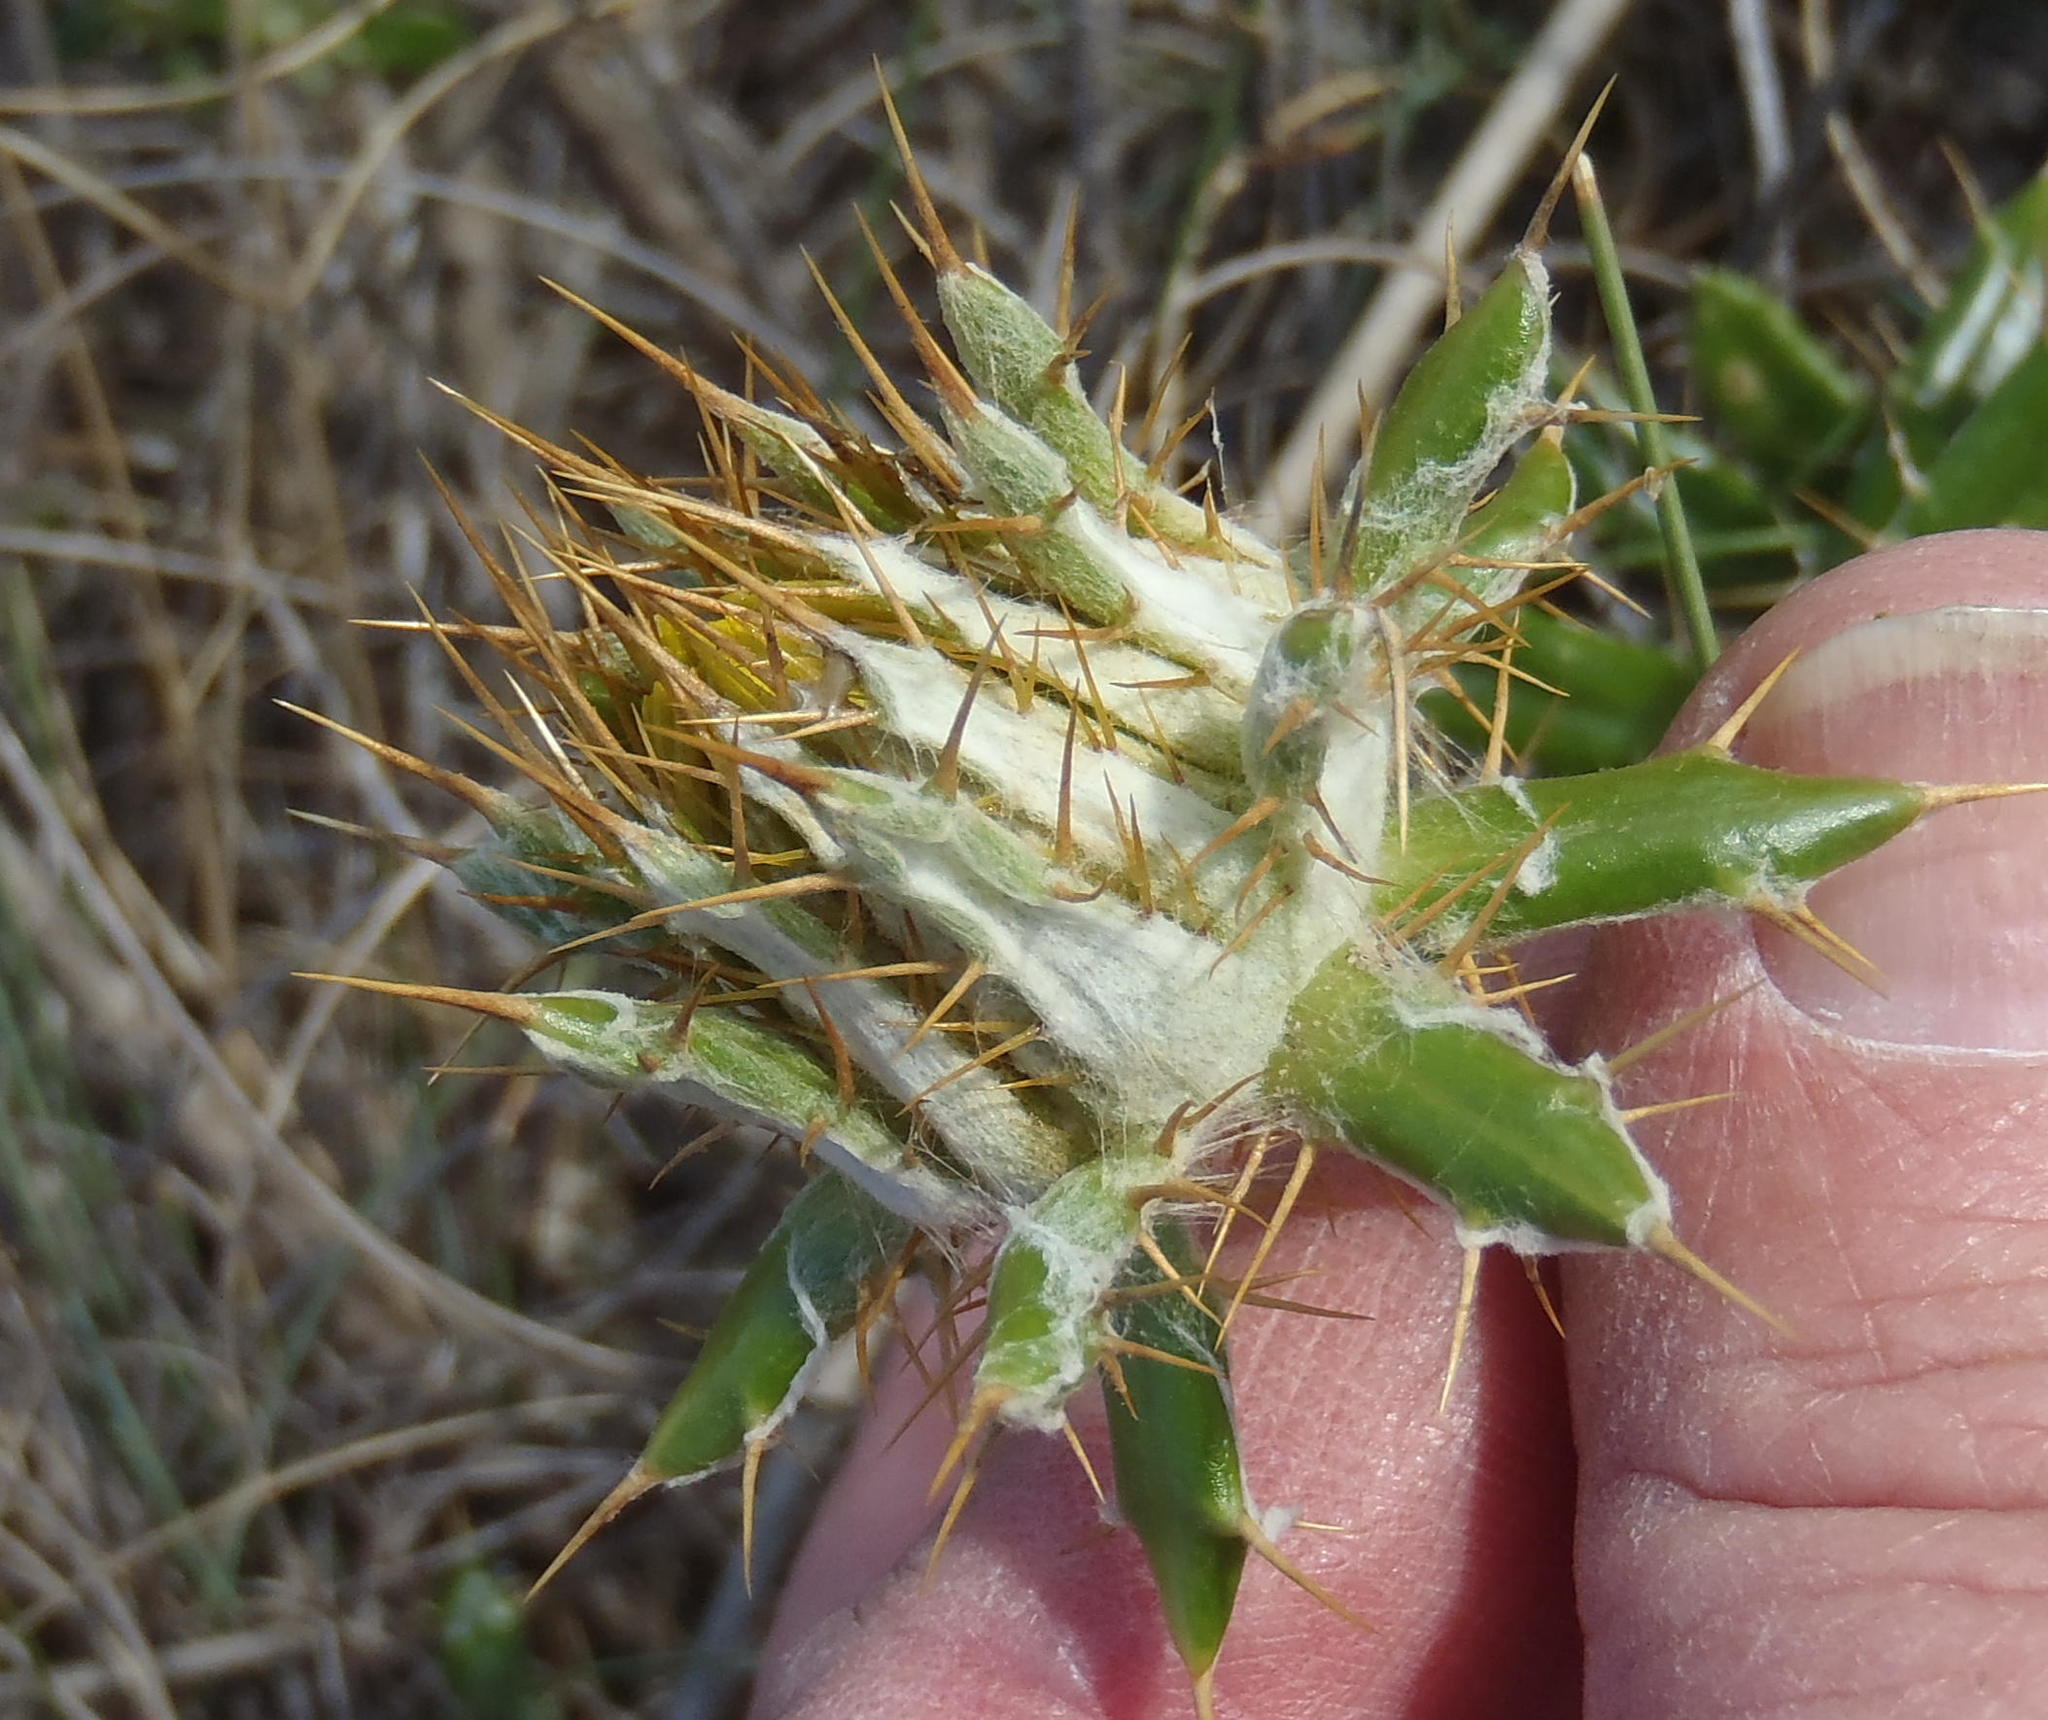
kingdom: Plantae
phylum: Tracheophyta
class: Magnoliopsida
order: Asterales
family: Asteraceae
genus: Berkheya
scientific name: Berkheya angustifolia
